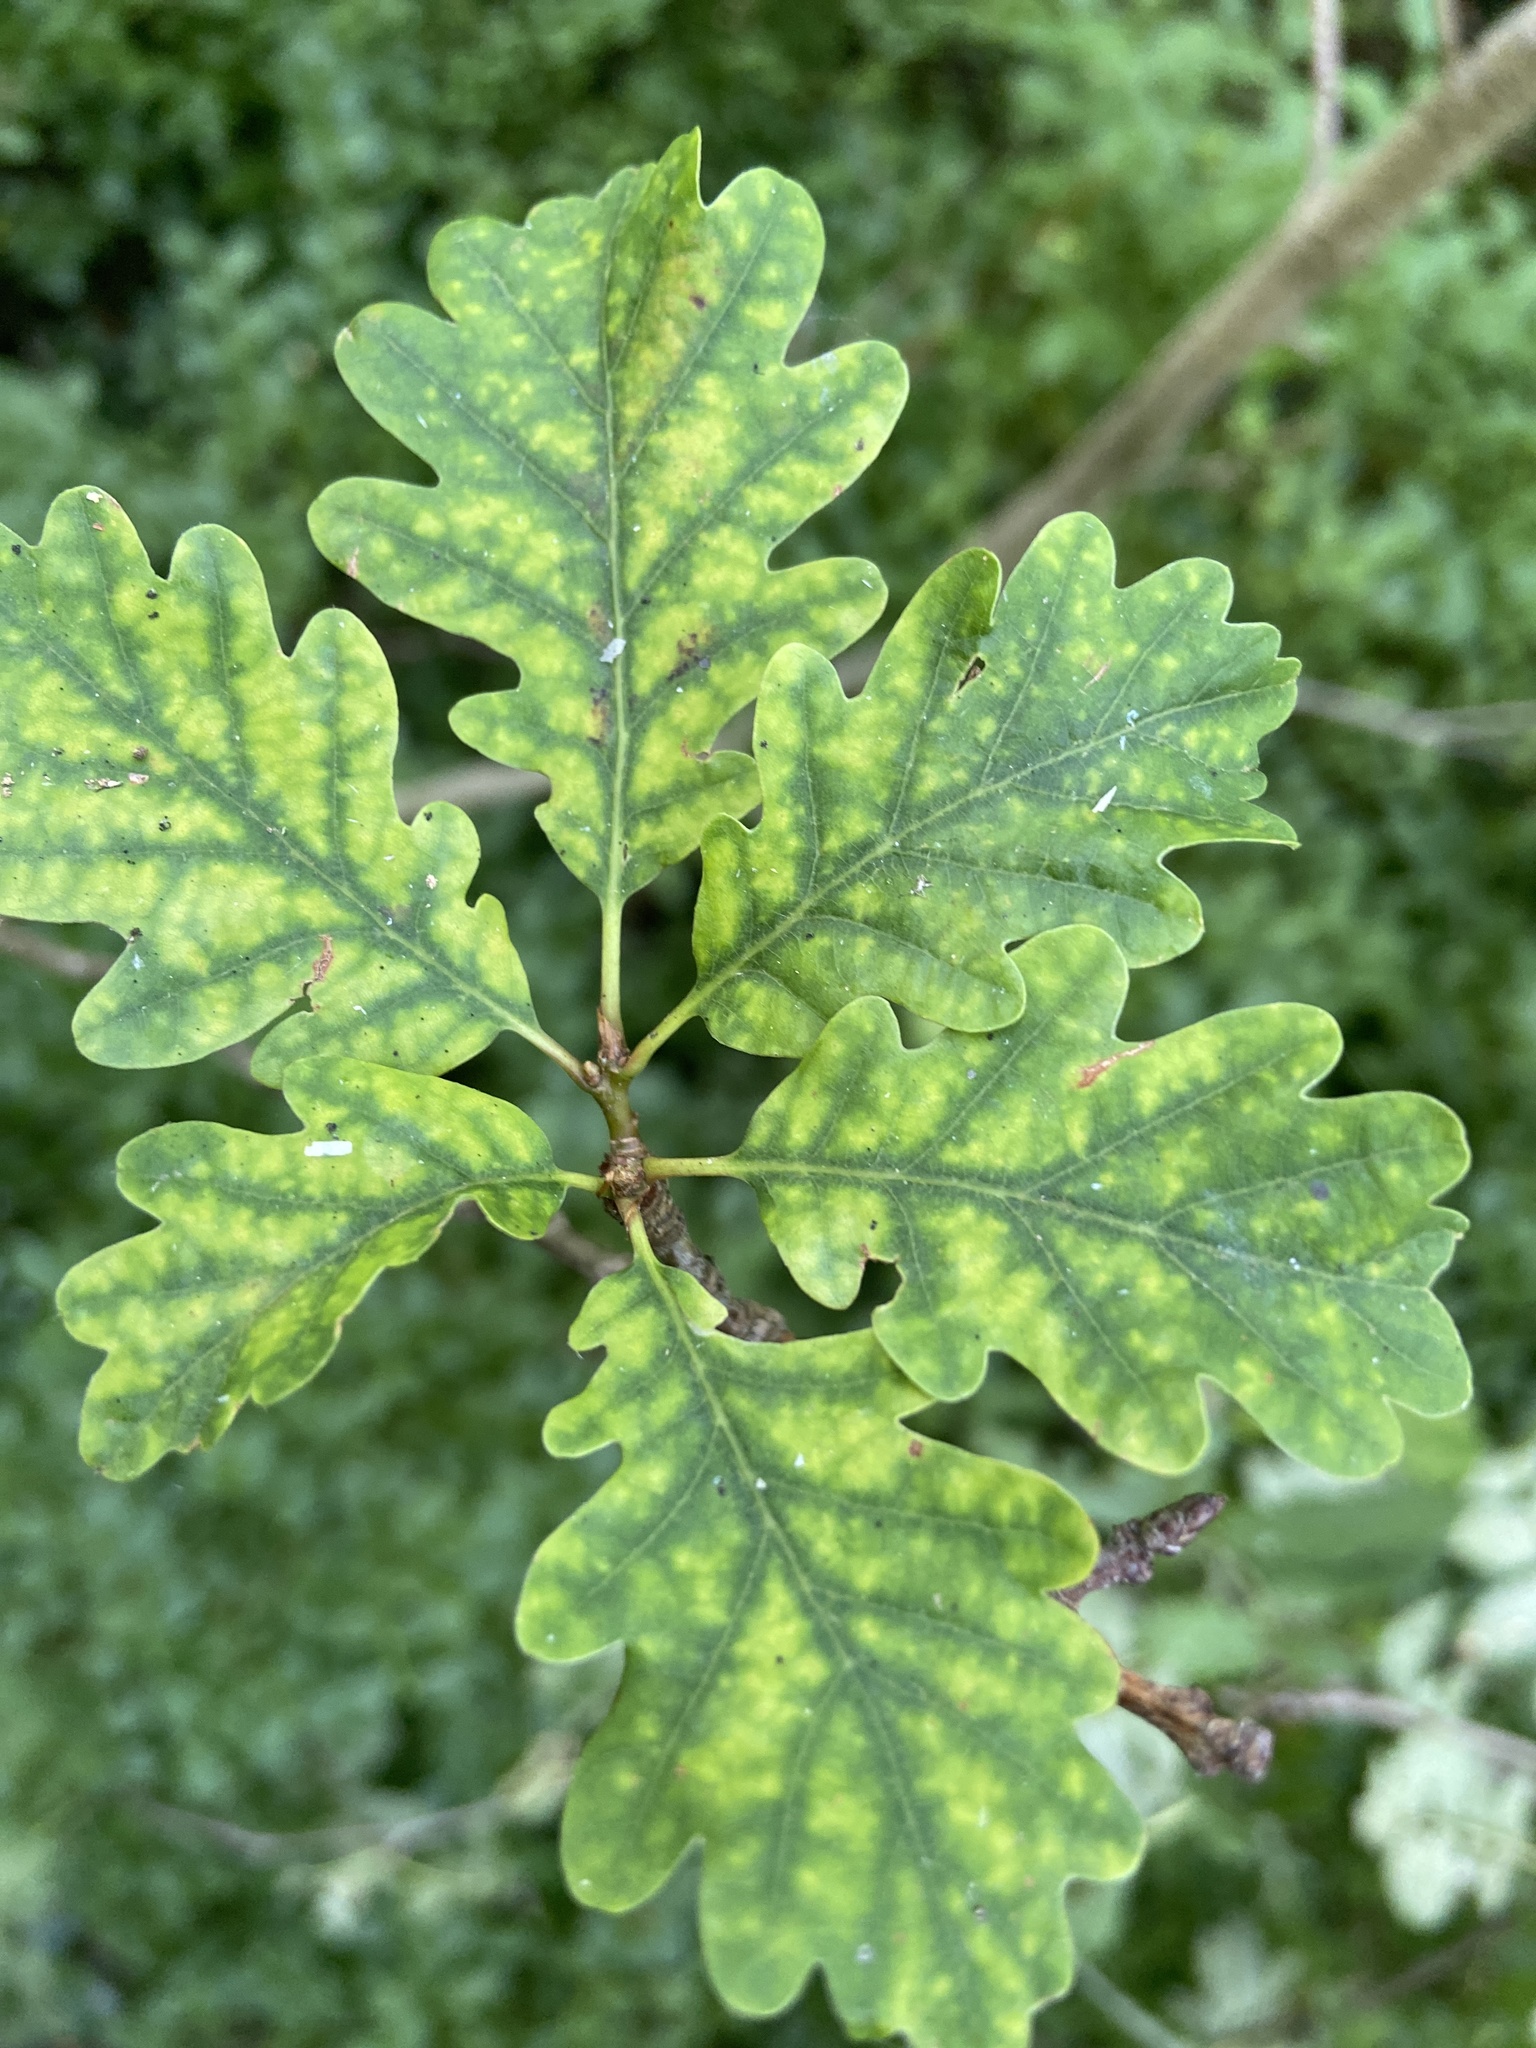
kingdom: Plantae
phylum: Tracheophyta
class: Magnoliopsida
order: Fagales
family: Fagaceae
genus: Quercus
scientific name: Quercus petraea
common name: Sessile oak
